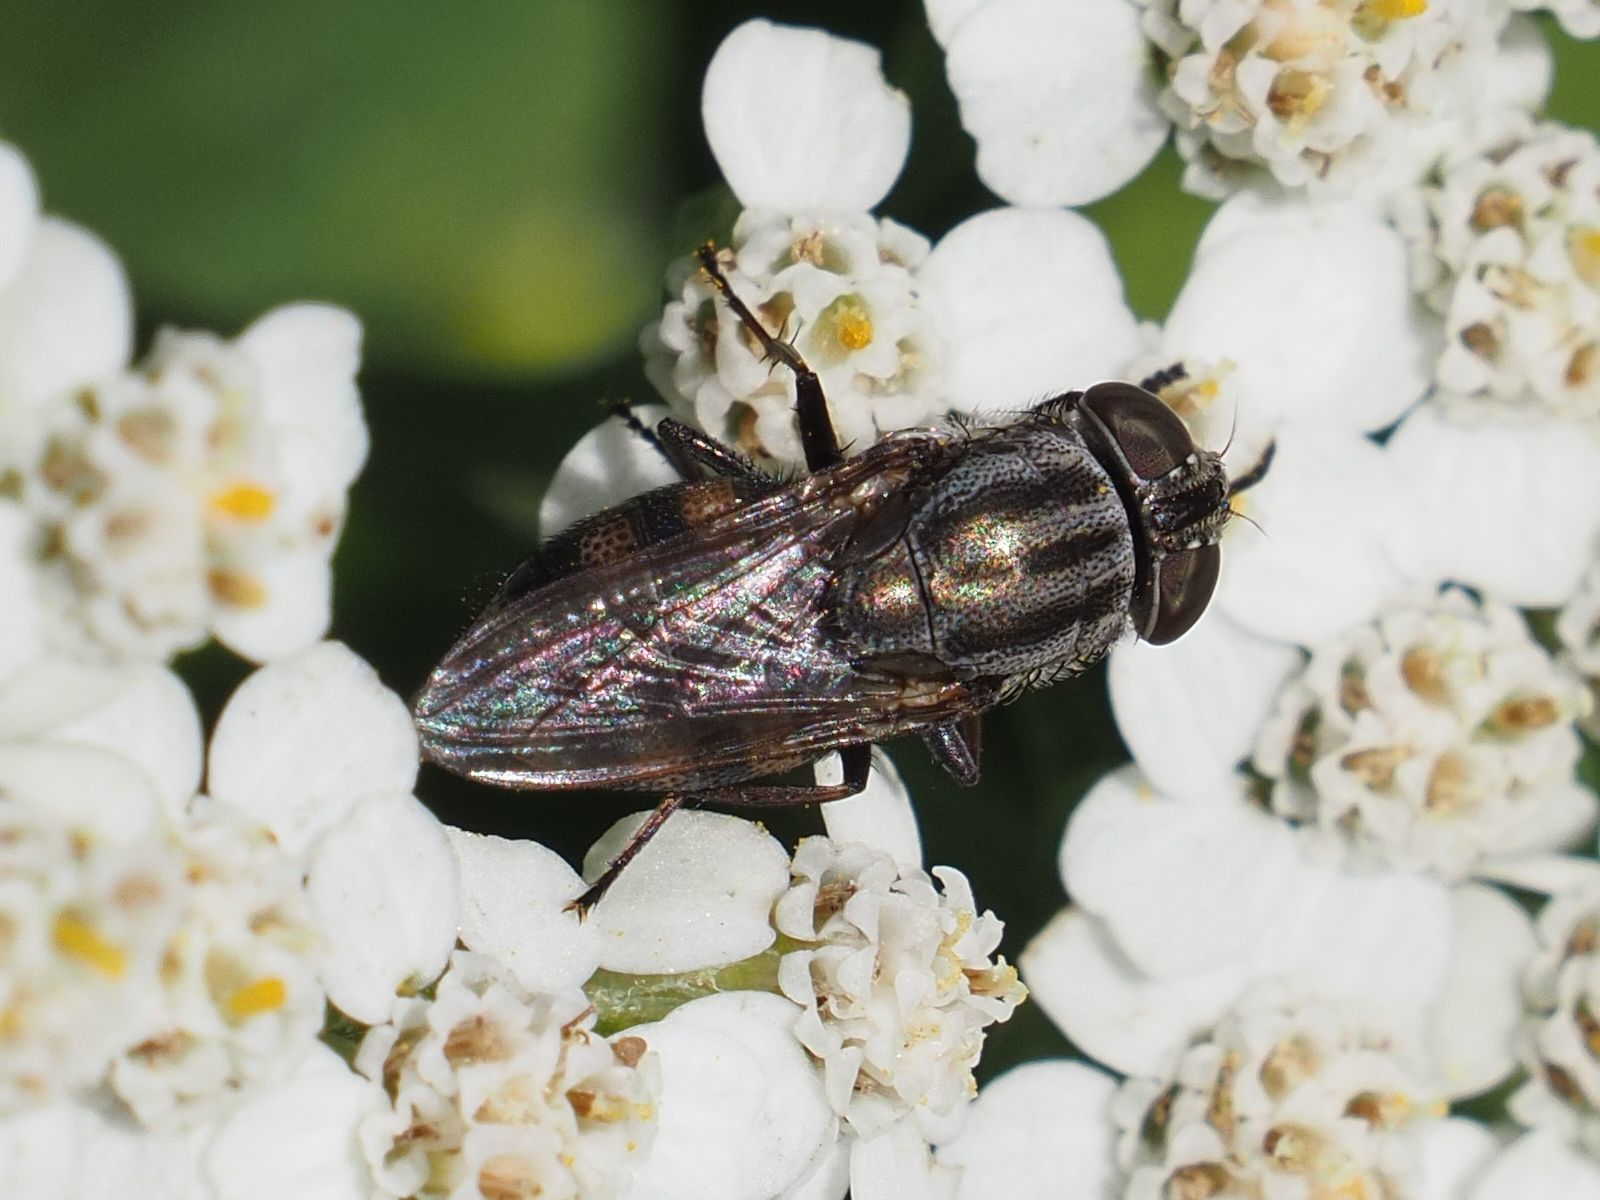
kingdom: Animalia
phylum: Arthropoda
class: Insecta
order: Diptera
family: Calliphoridae
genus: Stomorhina
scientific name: Stomorhina lunata
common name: Locust blowfly
